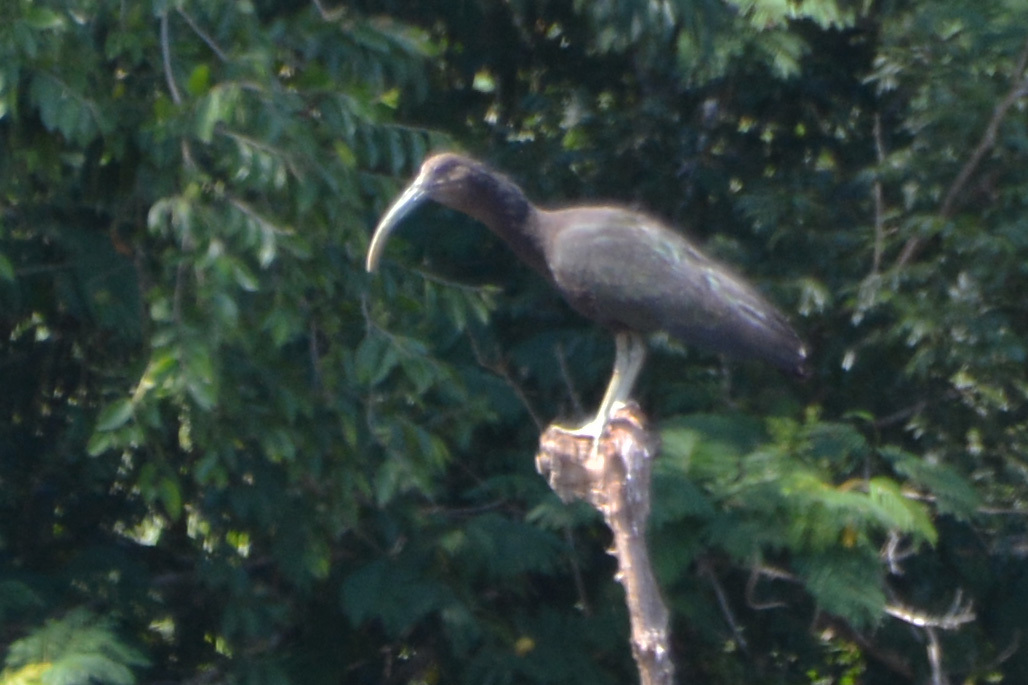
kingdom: Animalia
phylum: Chordata
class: Aves
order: Pelecaniformes
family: Threskiornithidae
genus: Mesembrinibis
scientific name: Mesembrinibis cayennensis
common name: Green ibis
